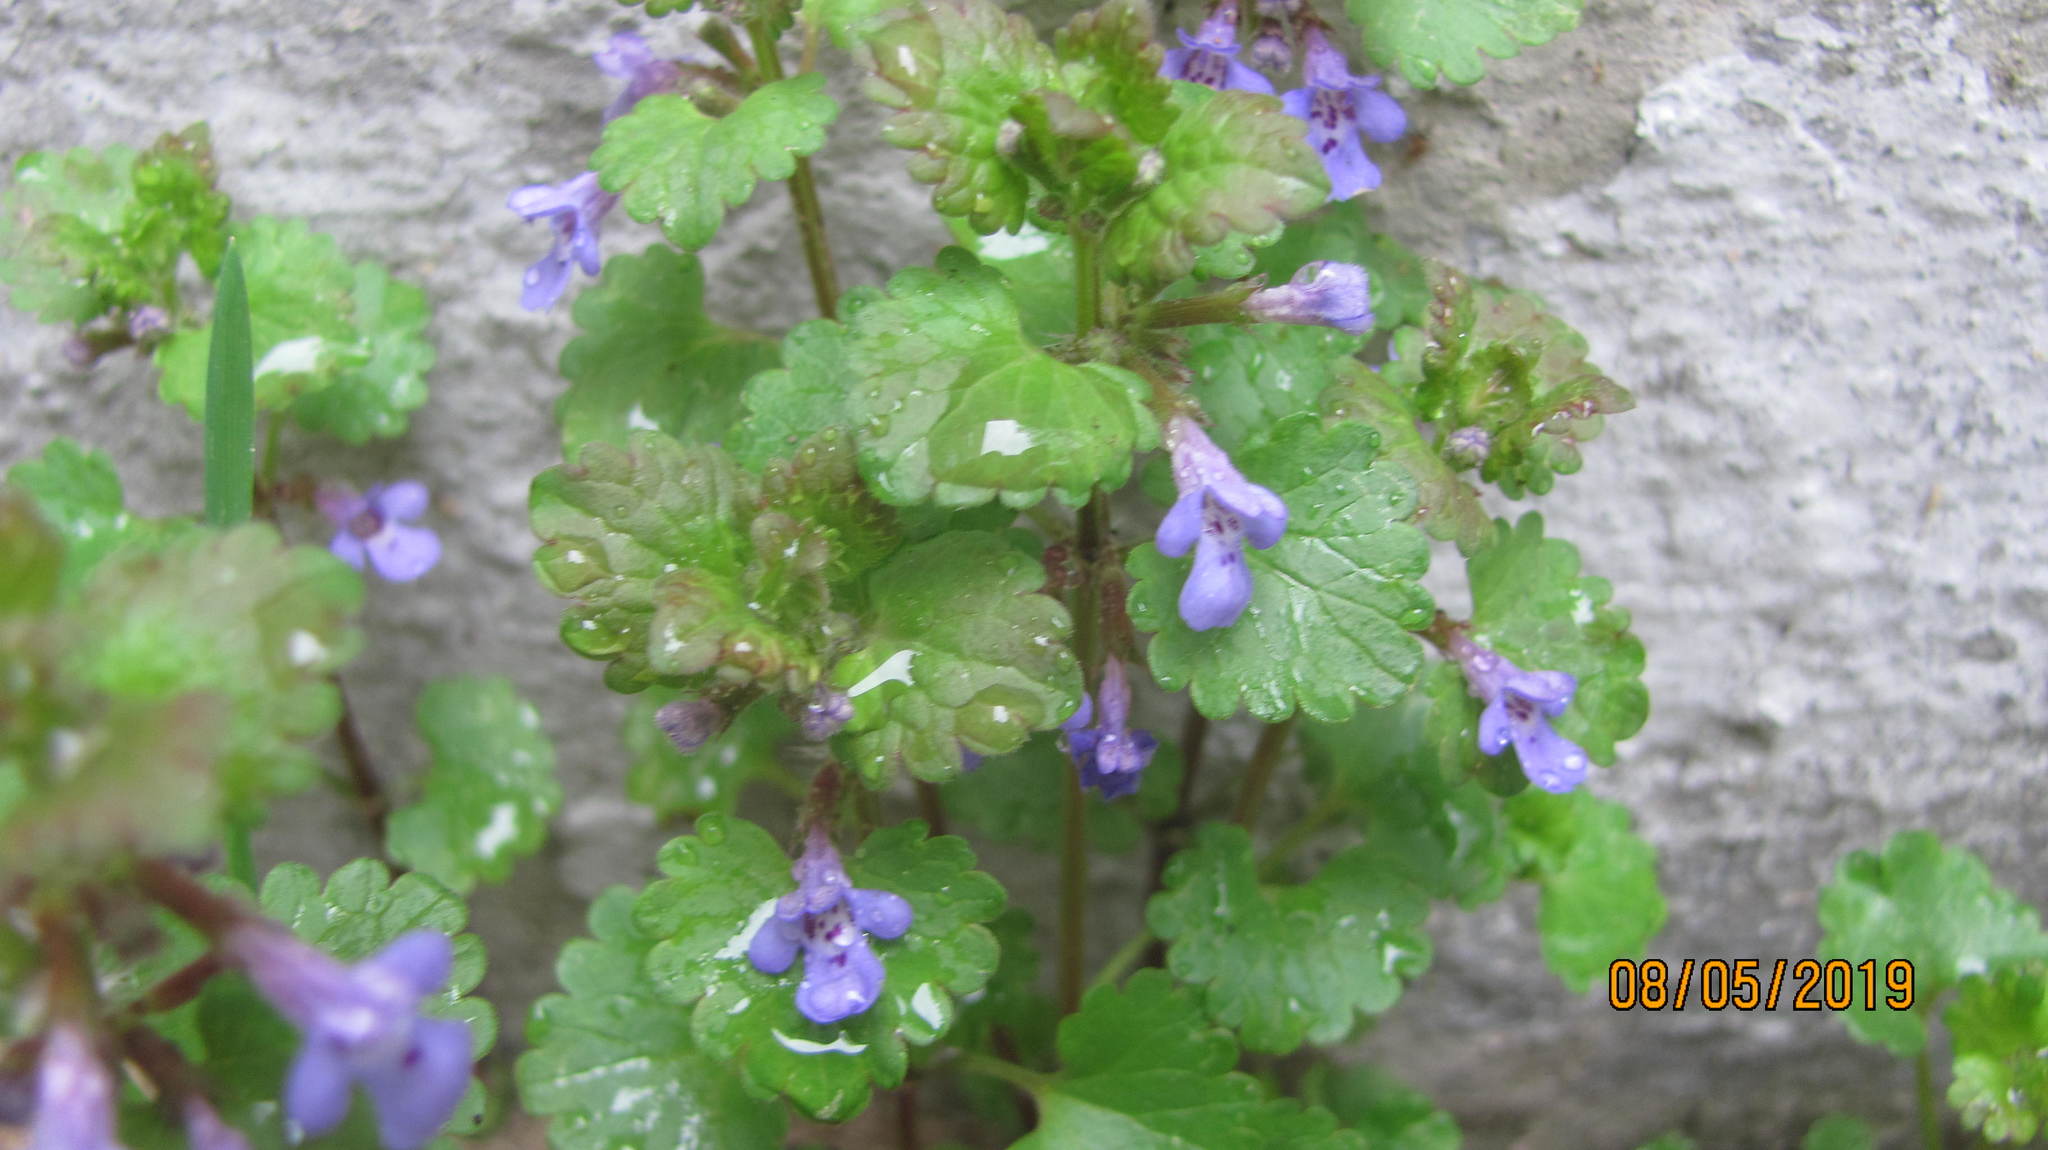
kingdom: Plantae
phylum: Tracheophyta
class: Magnoliopsida
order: Lamiales
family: Lamiaceae
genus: Glechoma
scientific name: Glechoma hederacea
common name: Ground ivy
